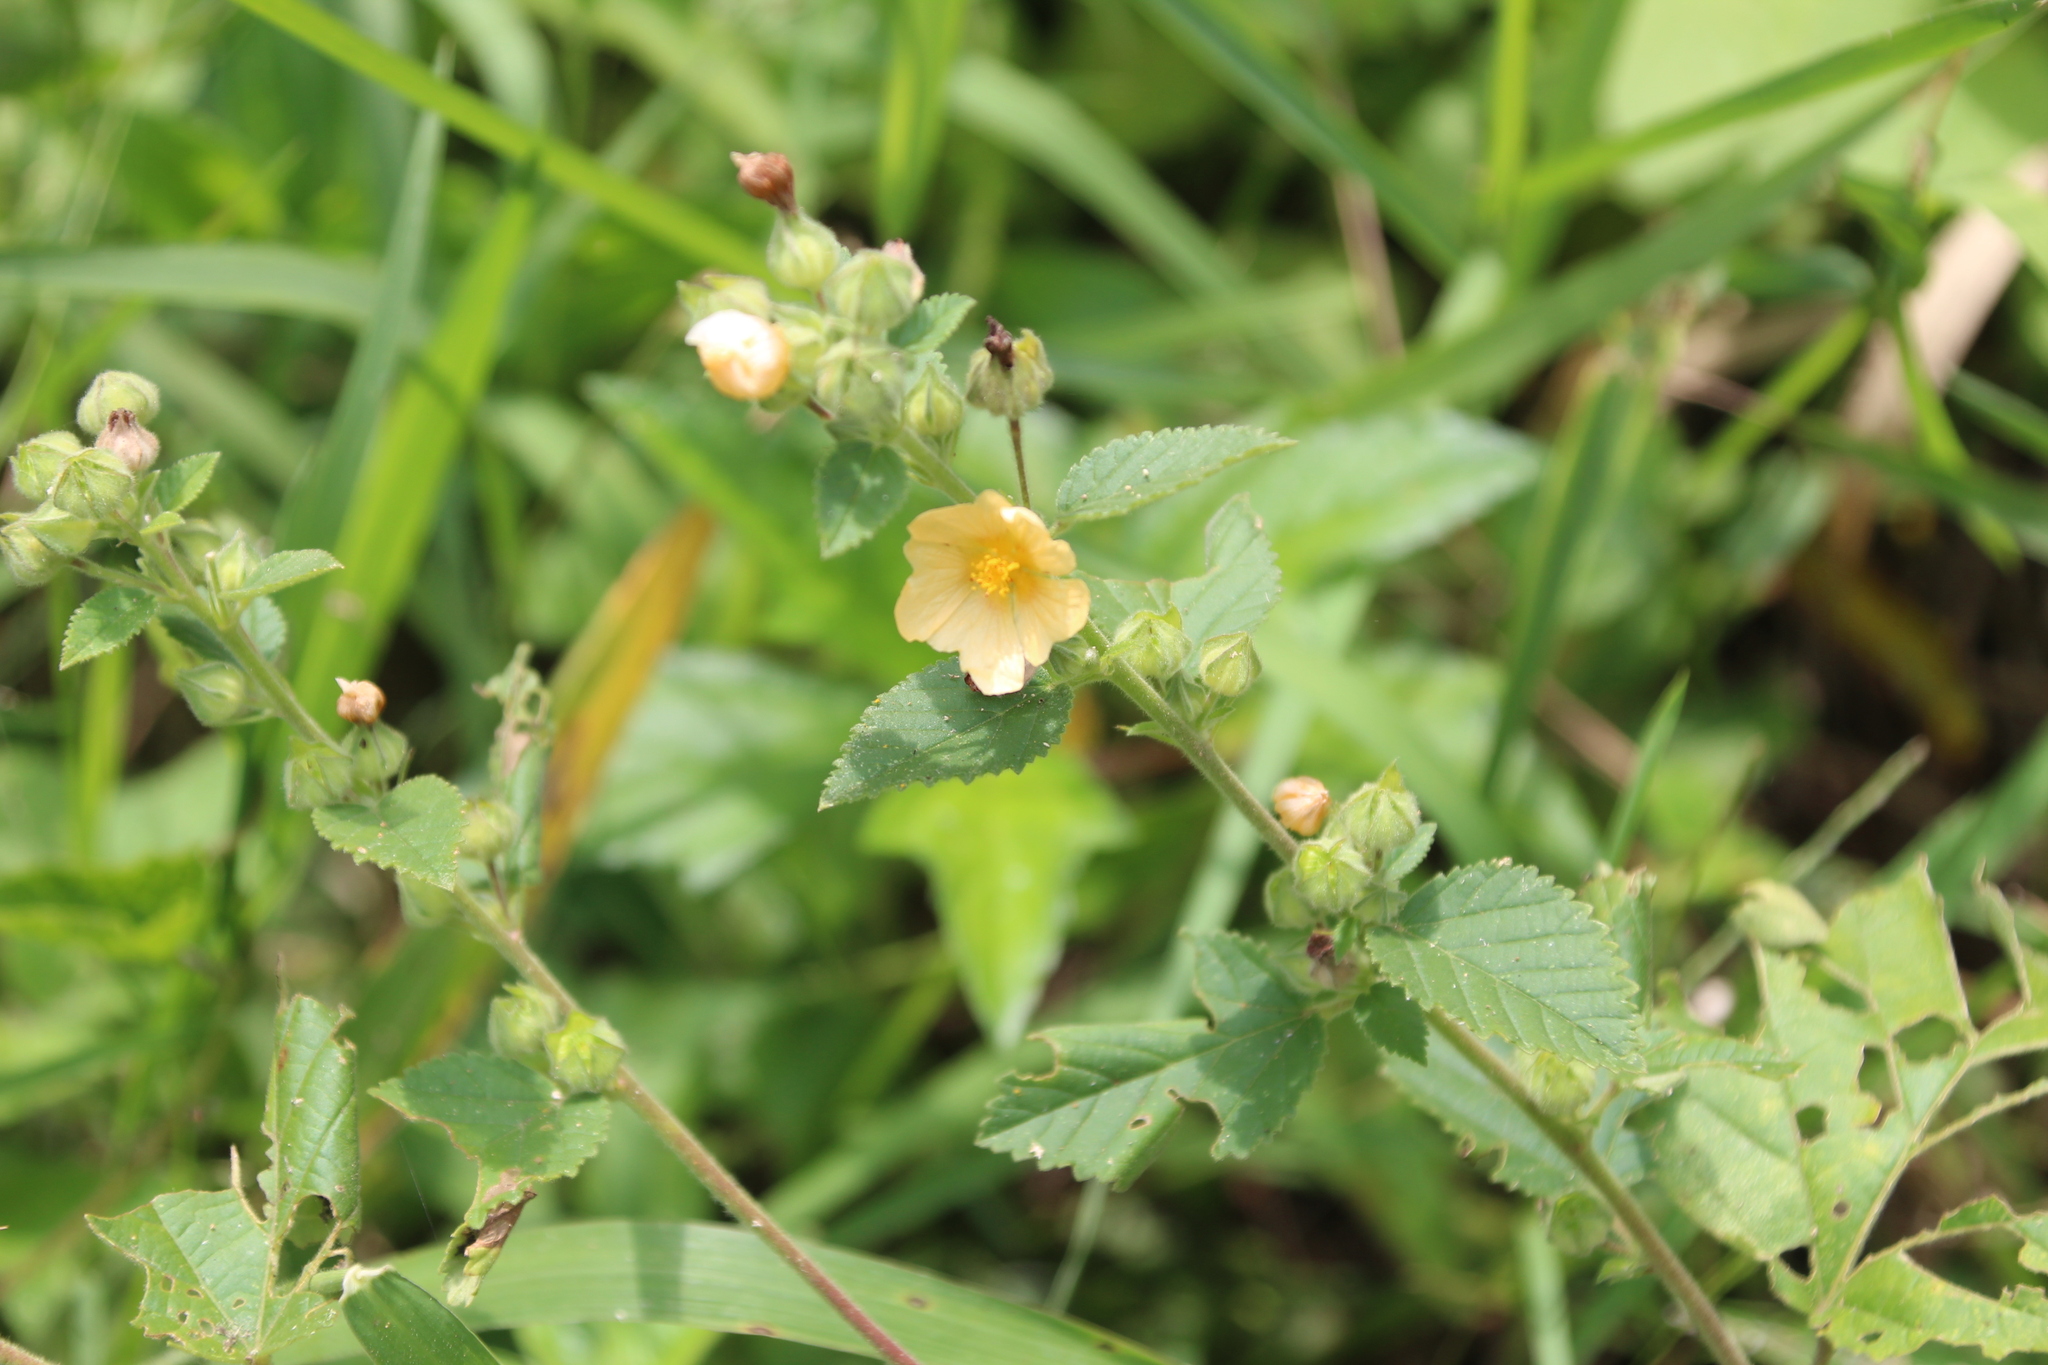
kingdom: Plantae
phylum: Tracheophyta
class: Magnoliopsida
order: Malvales
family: Malvaceae
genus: Sida
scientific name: Sida cordifolia
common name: Ilima
